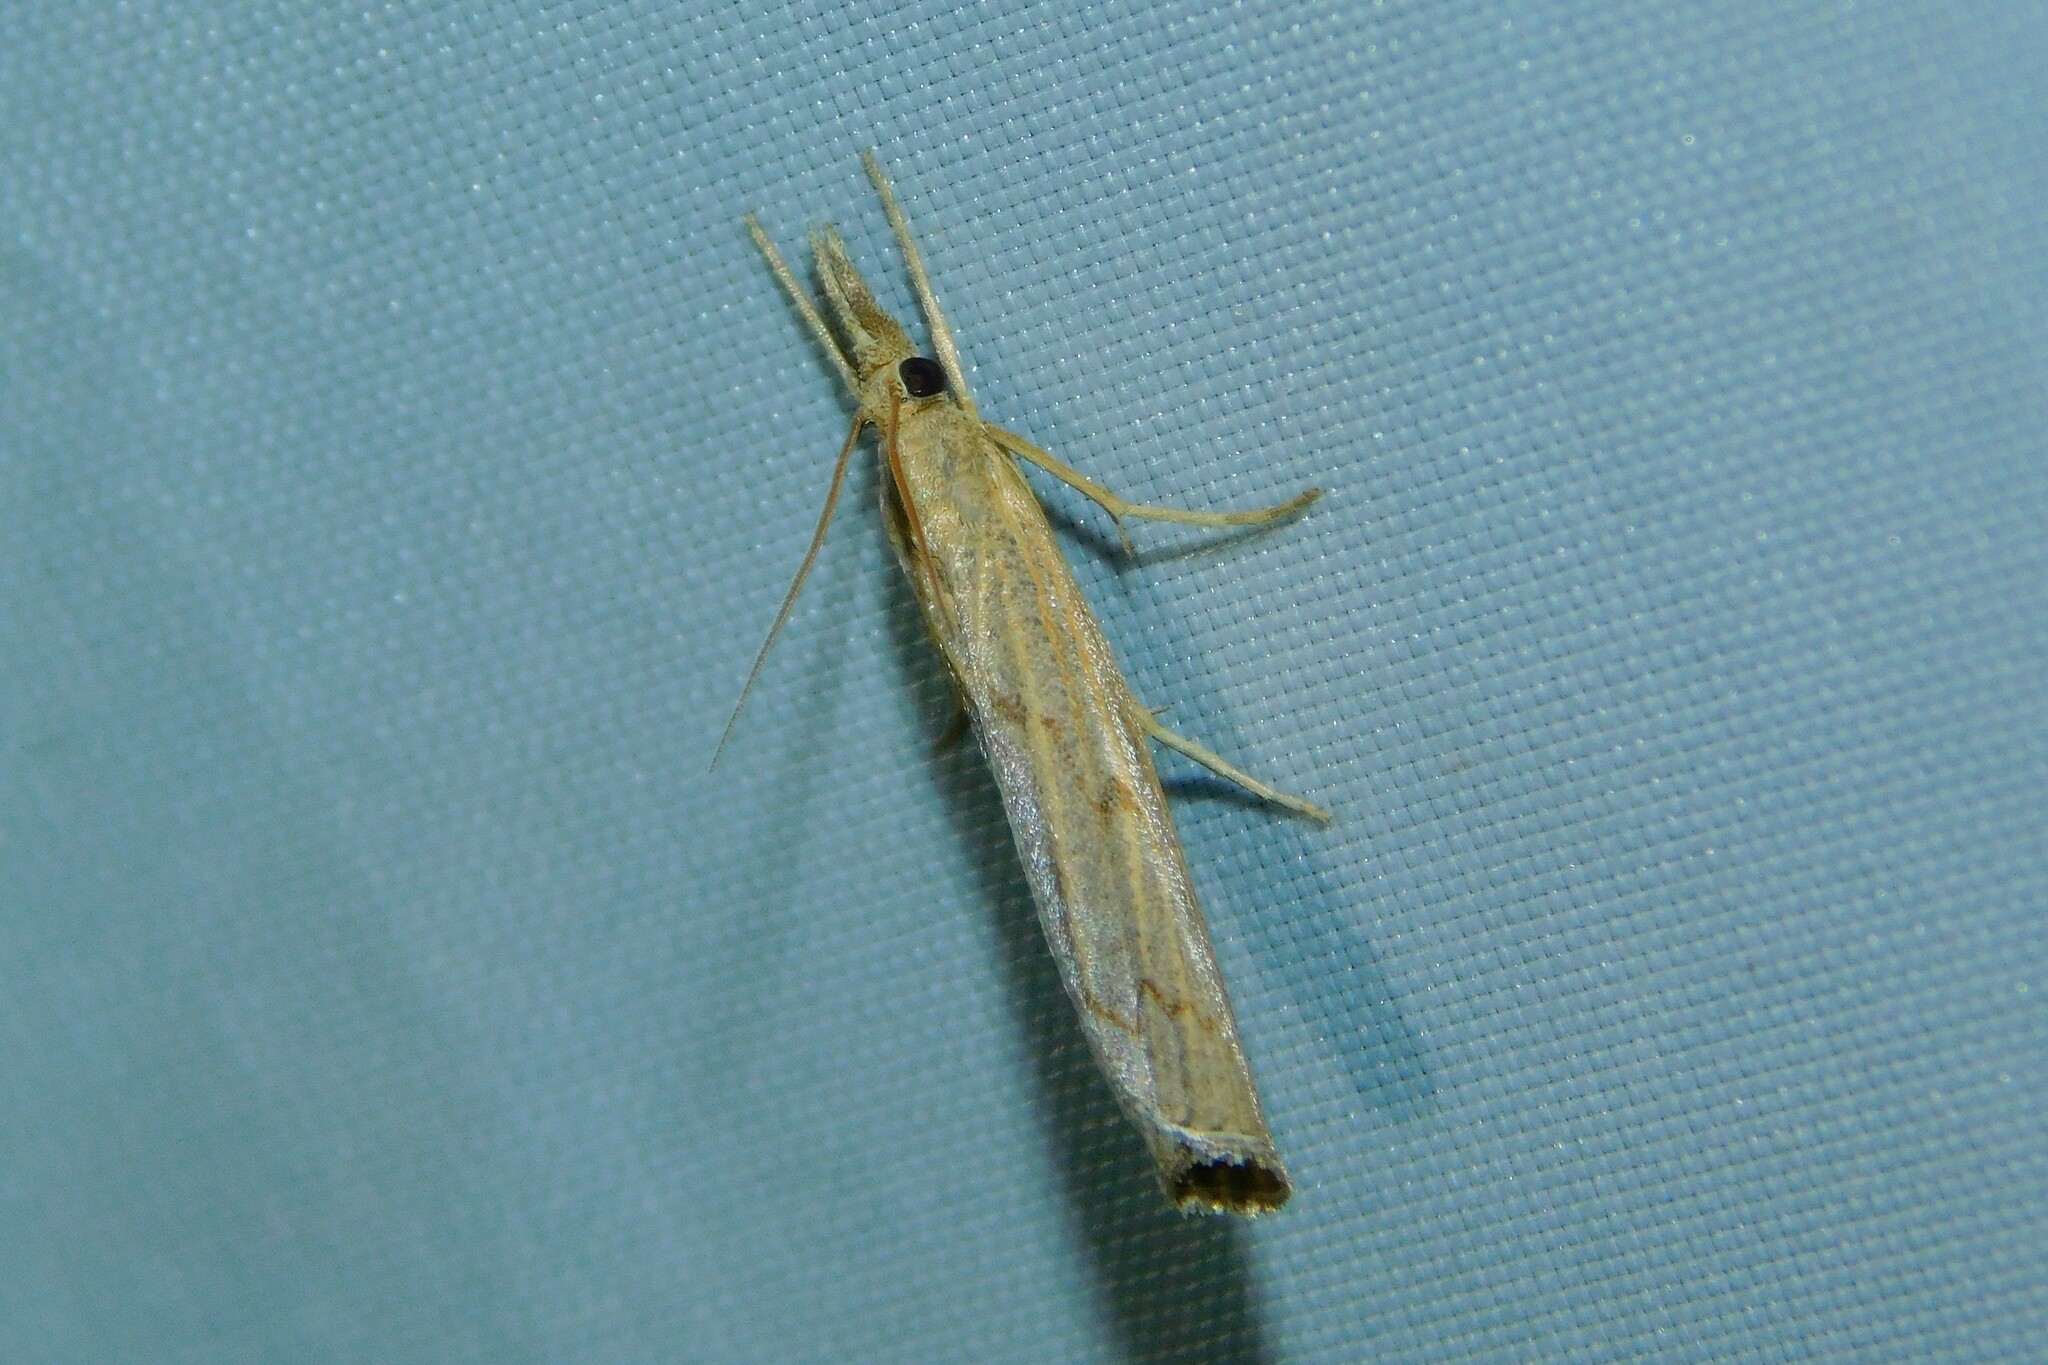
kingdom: Animalia
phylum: Arthropoda
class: Insecta
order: Lepidoptera
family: Crambidae
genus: Pediasia
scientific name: Pediasia contaminella
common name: Waste grass-veneer
